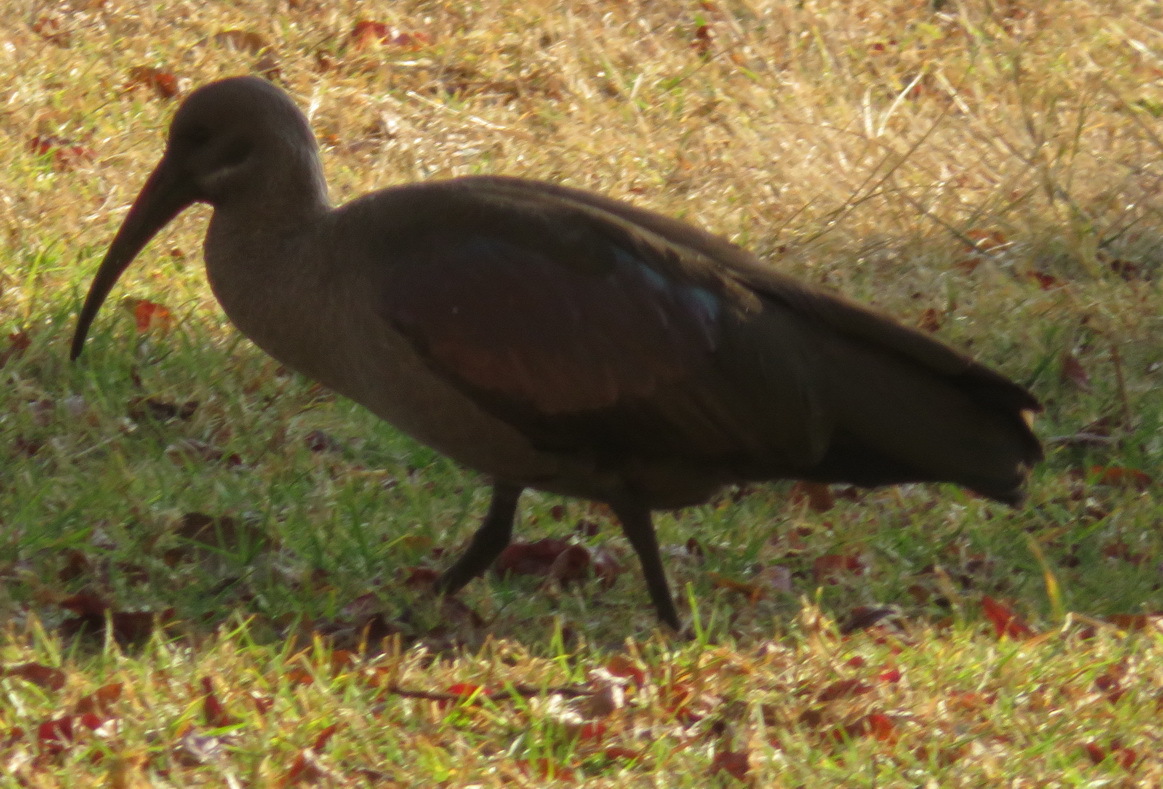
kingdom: Animalia
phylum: Chordata
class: Aves
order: Pelecaniformes
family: Threskiornithidae
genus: Bostrychia
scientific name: Bostrychia hagedash
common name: Hadada ibis
